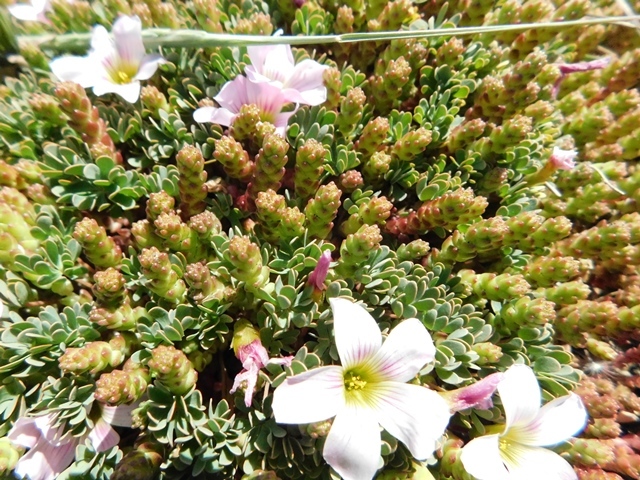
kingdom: Plantae
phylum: Tracheophyta
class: Magnoliopsida
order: Oxalidales
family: Oxalidaceae
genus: Oxalis
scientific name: Oxalis enneaphylla
